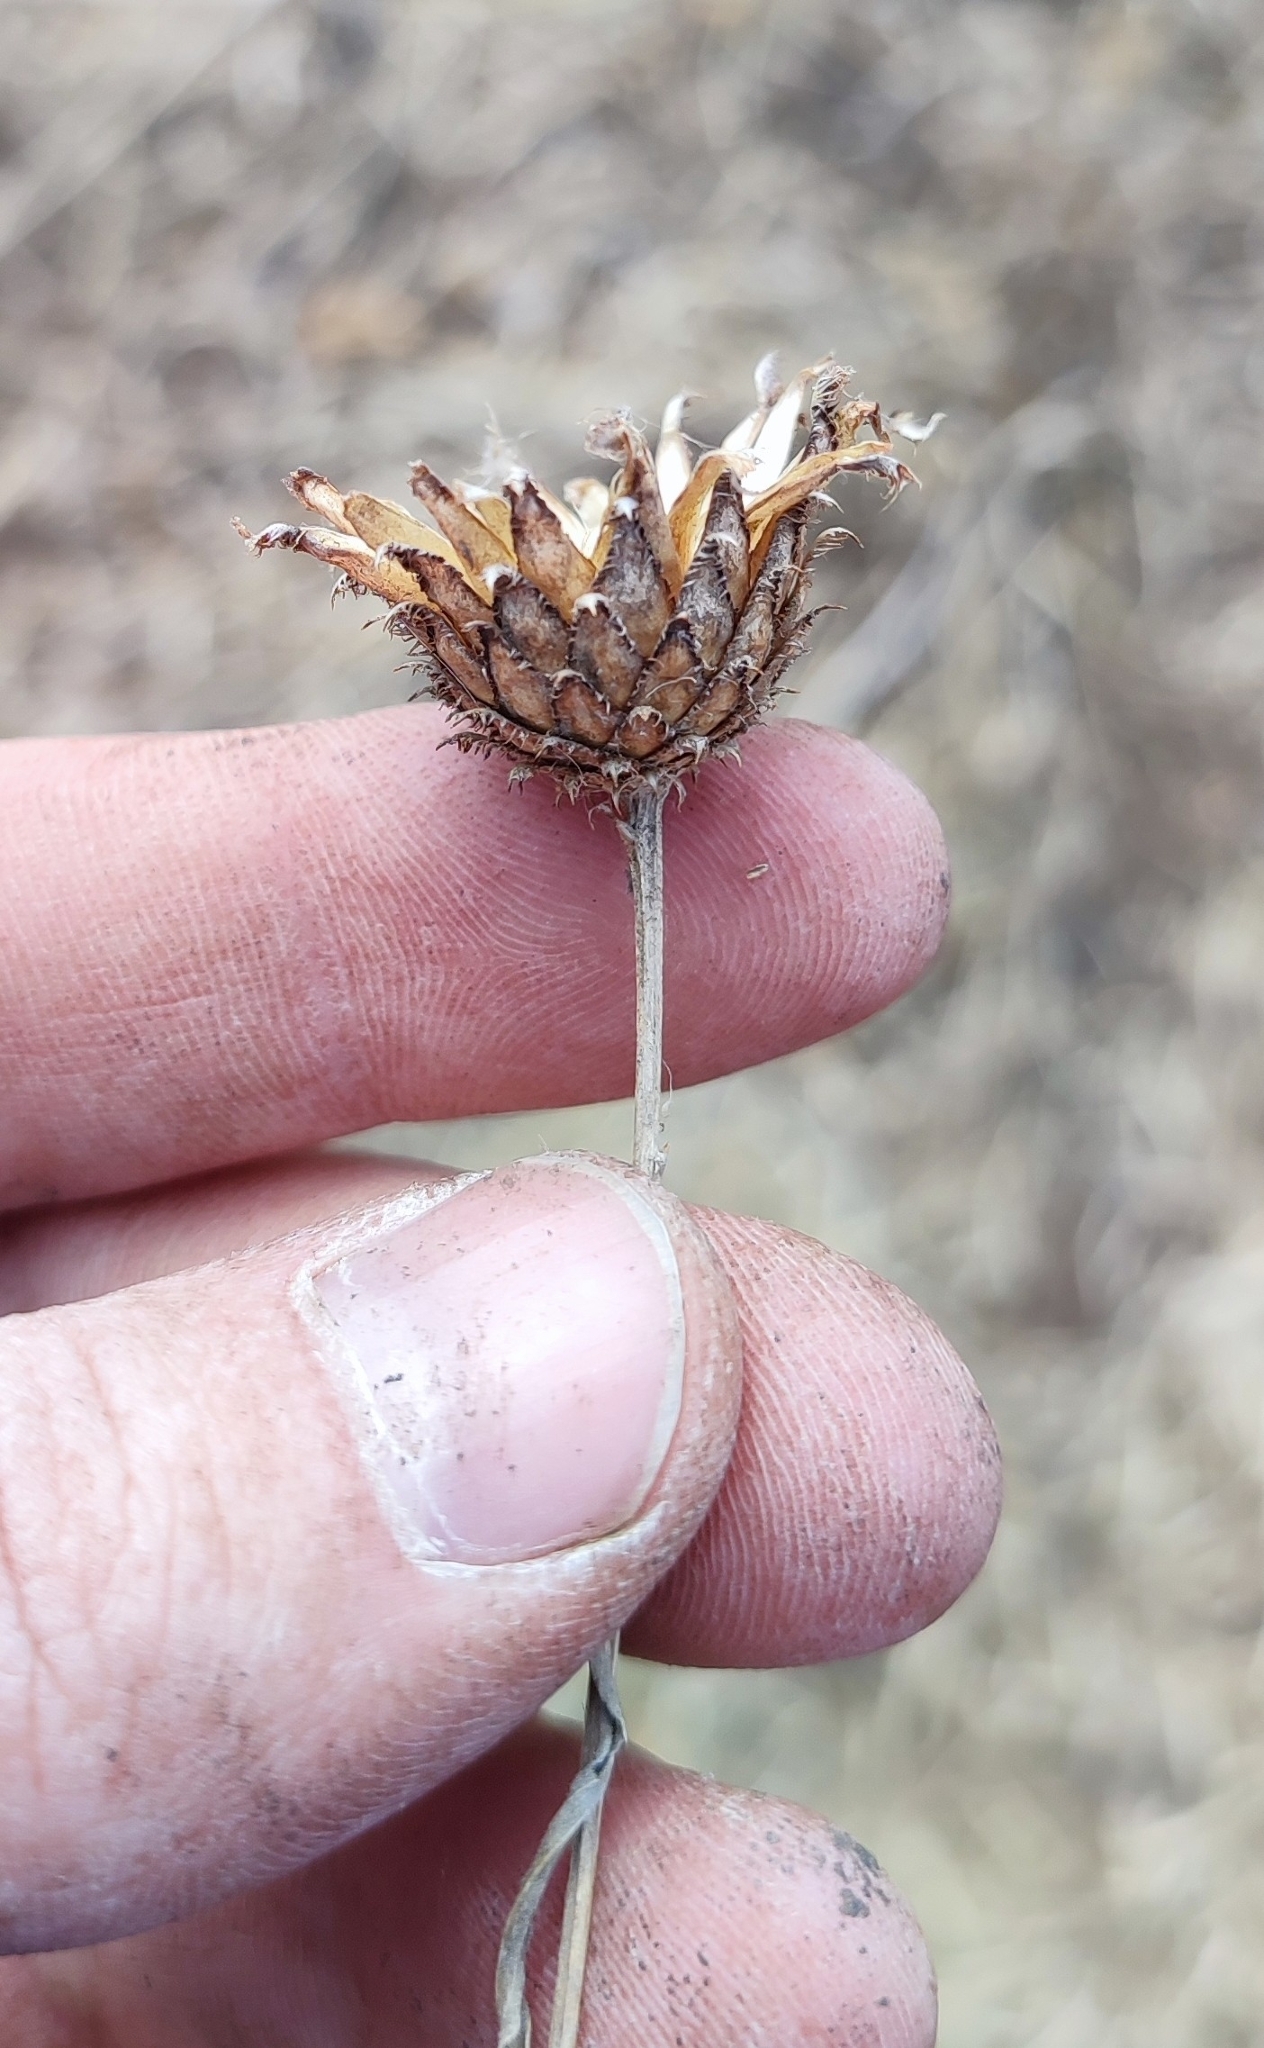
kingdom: Plantae
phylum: Tracheophyta
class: Magnoliopsida
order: Asterales
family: Asteraceae
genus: Centaurea
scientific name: Centaurea scabiosa
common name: Greater knapweed
